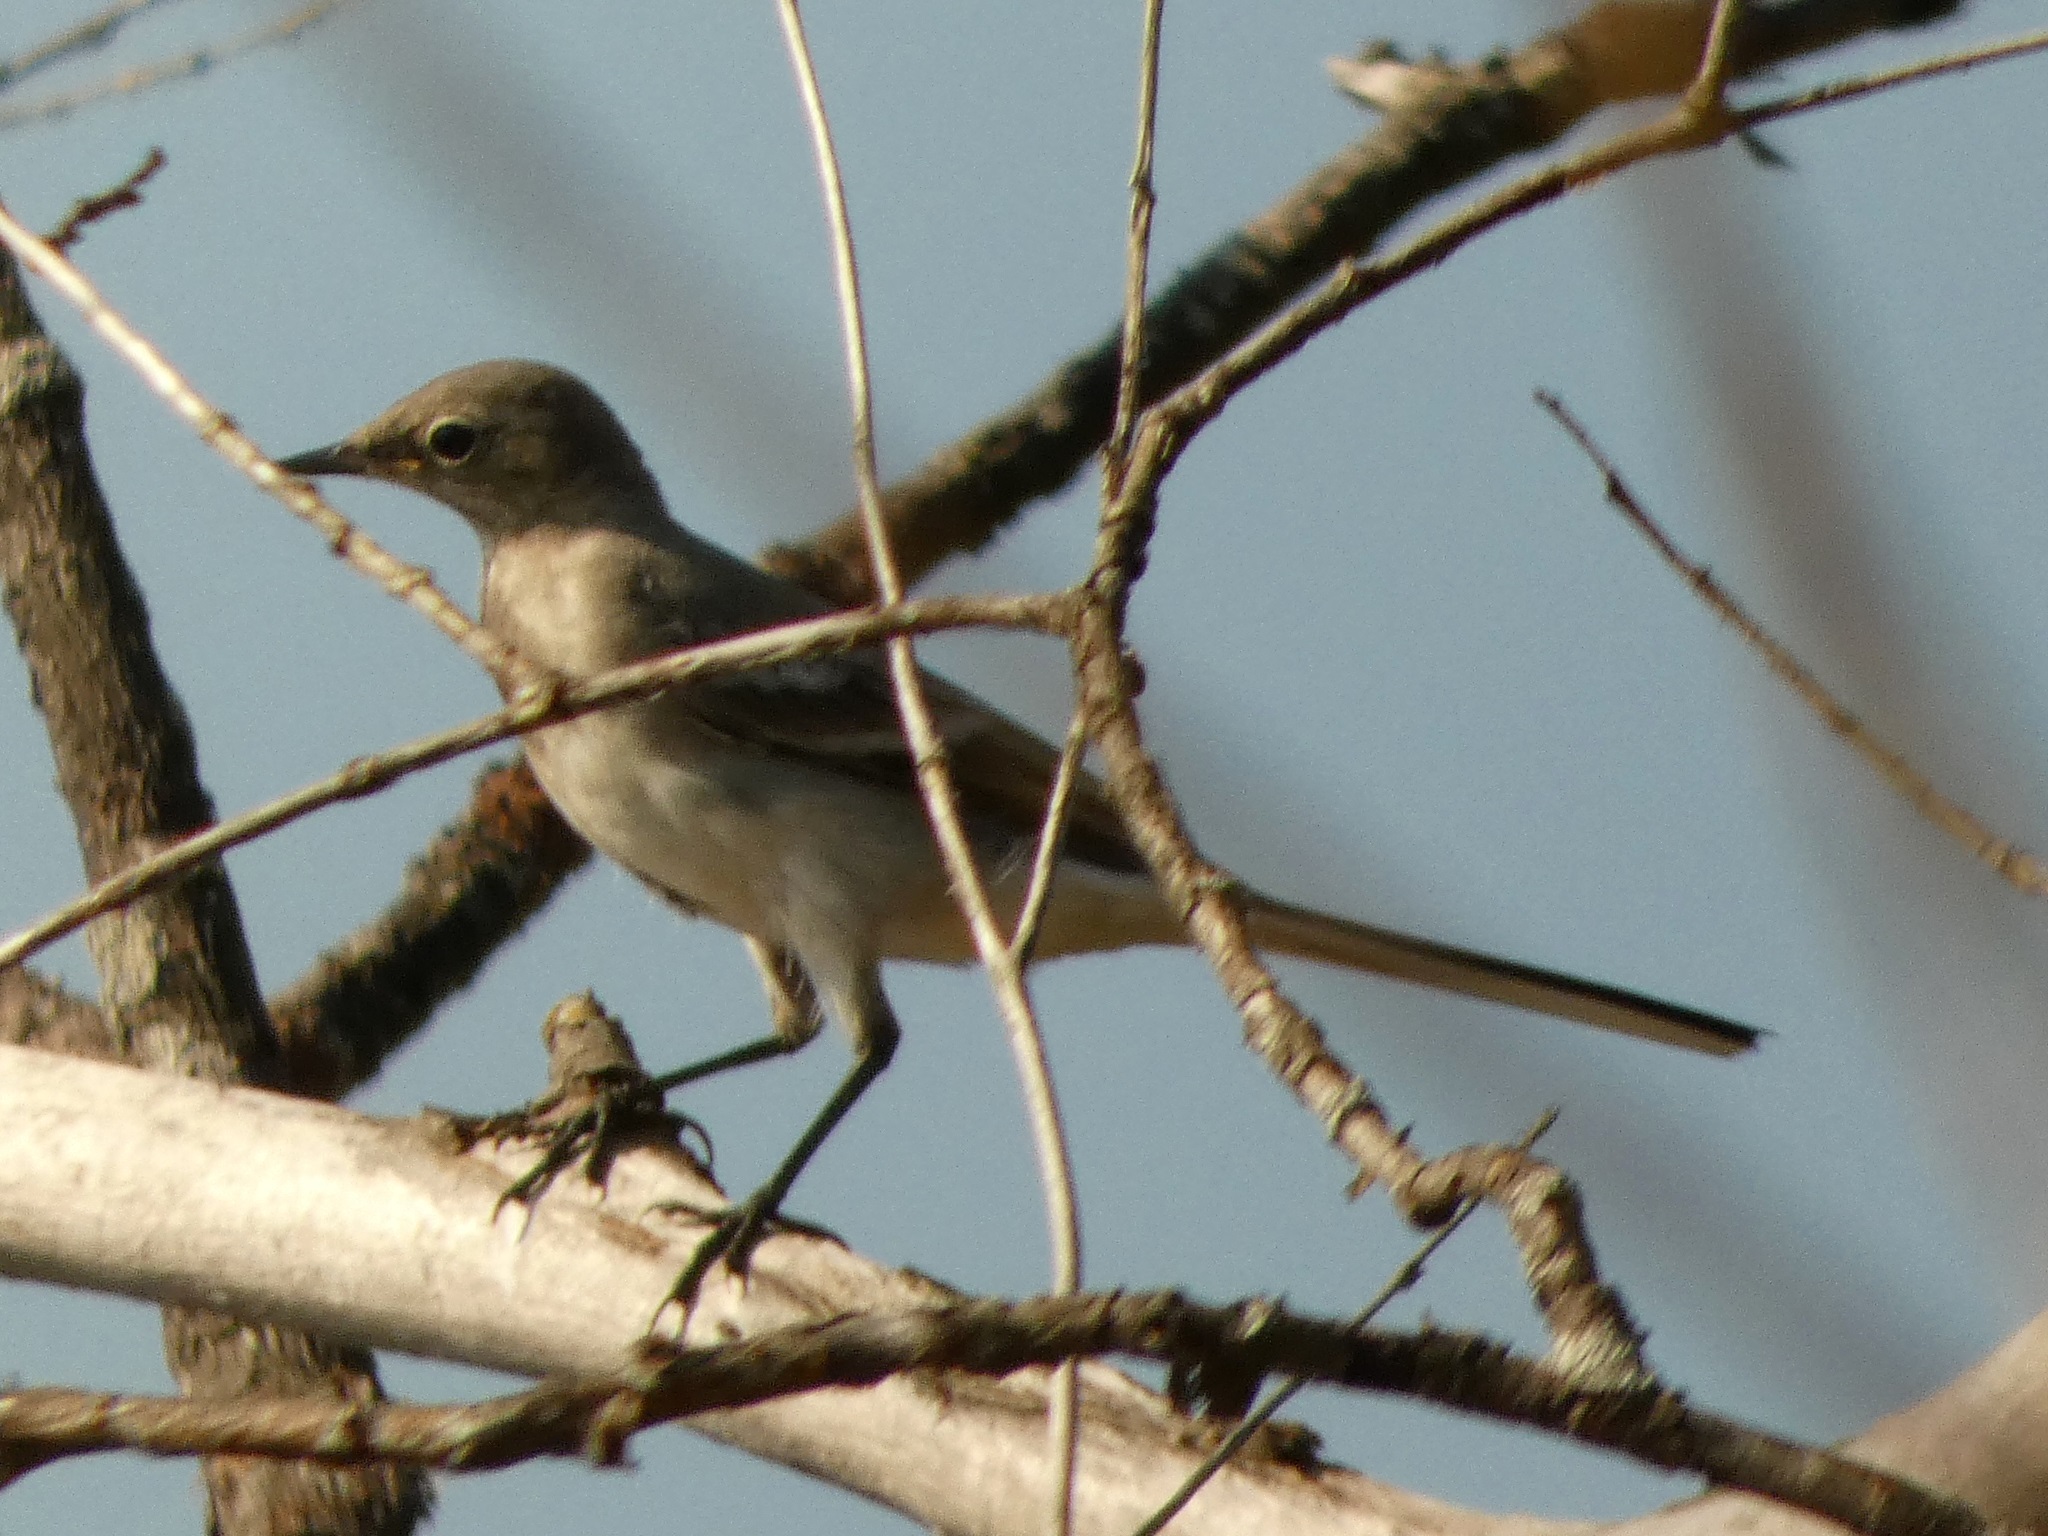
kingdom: Animalia
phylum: Chordata
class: Aves
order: Passeriformes
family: Motacillidae
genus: Motacilla
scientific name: Motacilla alba
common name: White wagtail
